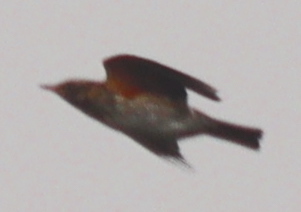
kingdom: Animalia
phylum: Chordata
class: Aves
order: Passeriformes
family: Turdidae
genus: Turdus
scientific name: Turdus iliacus
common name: Redwing
